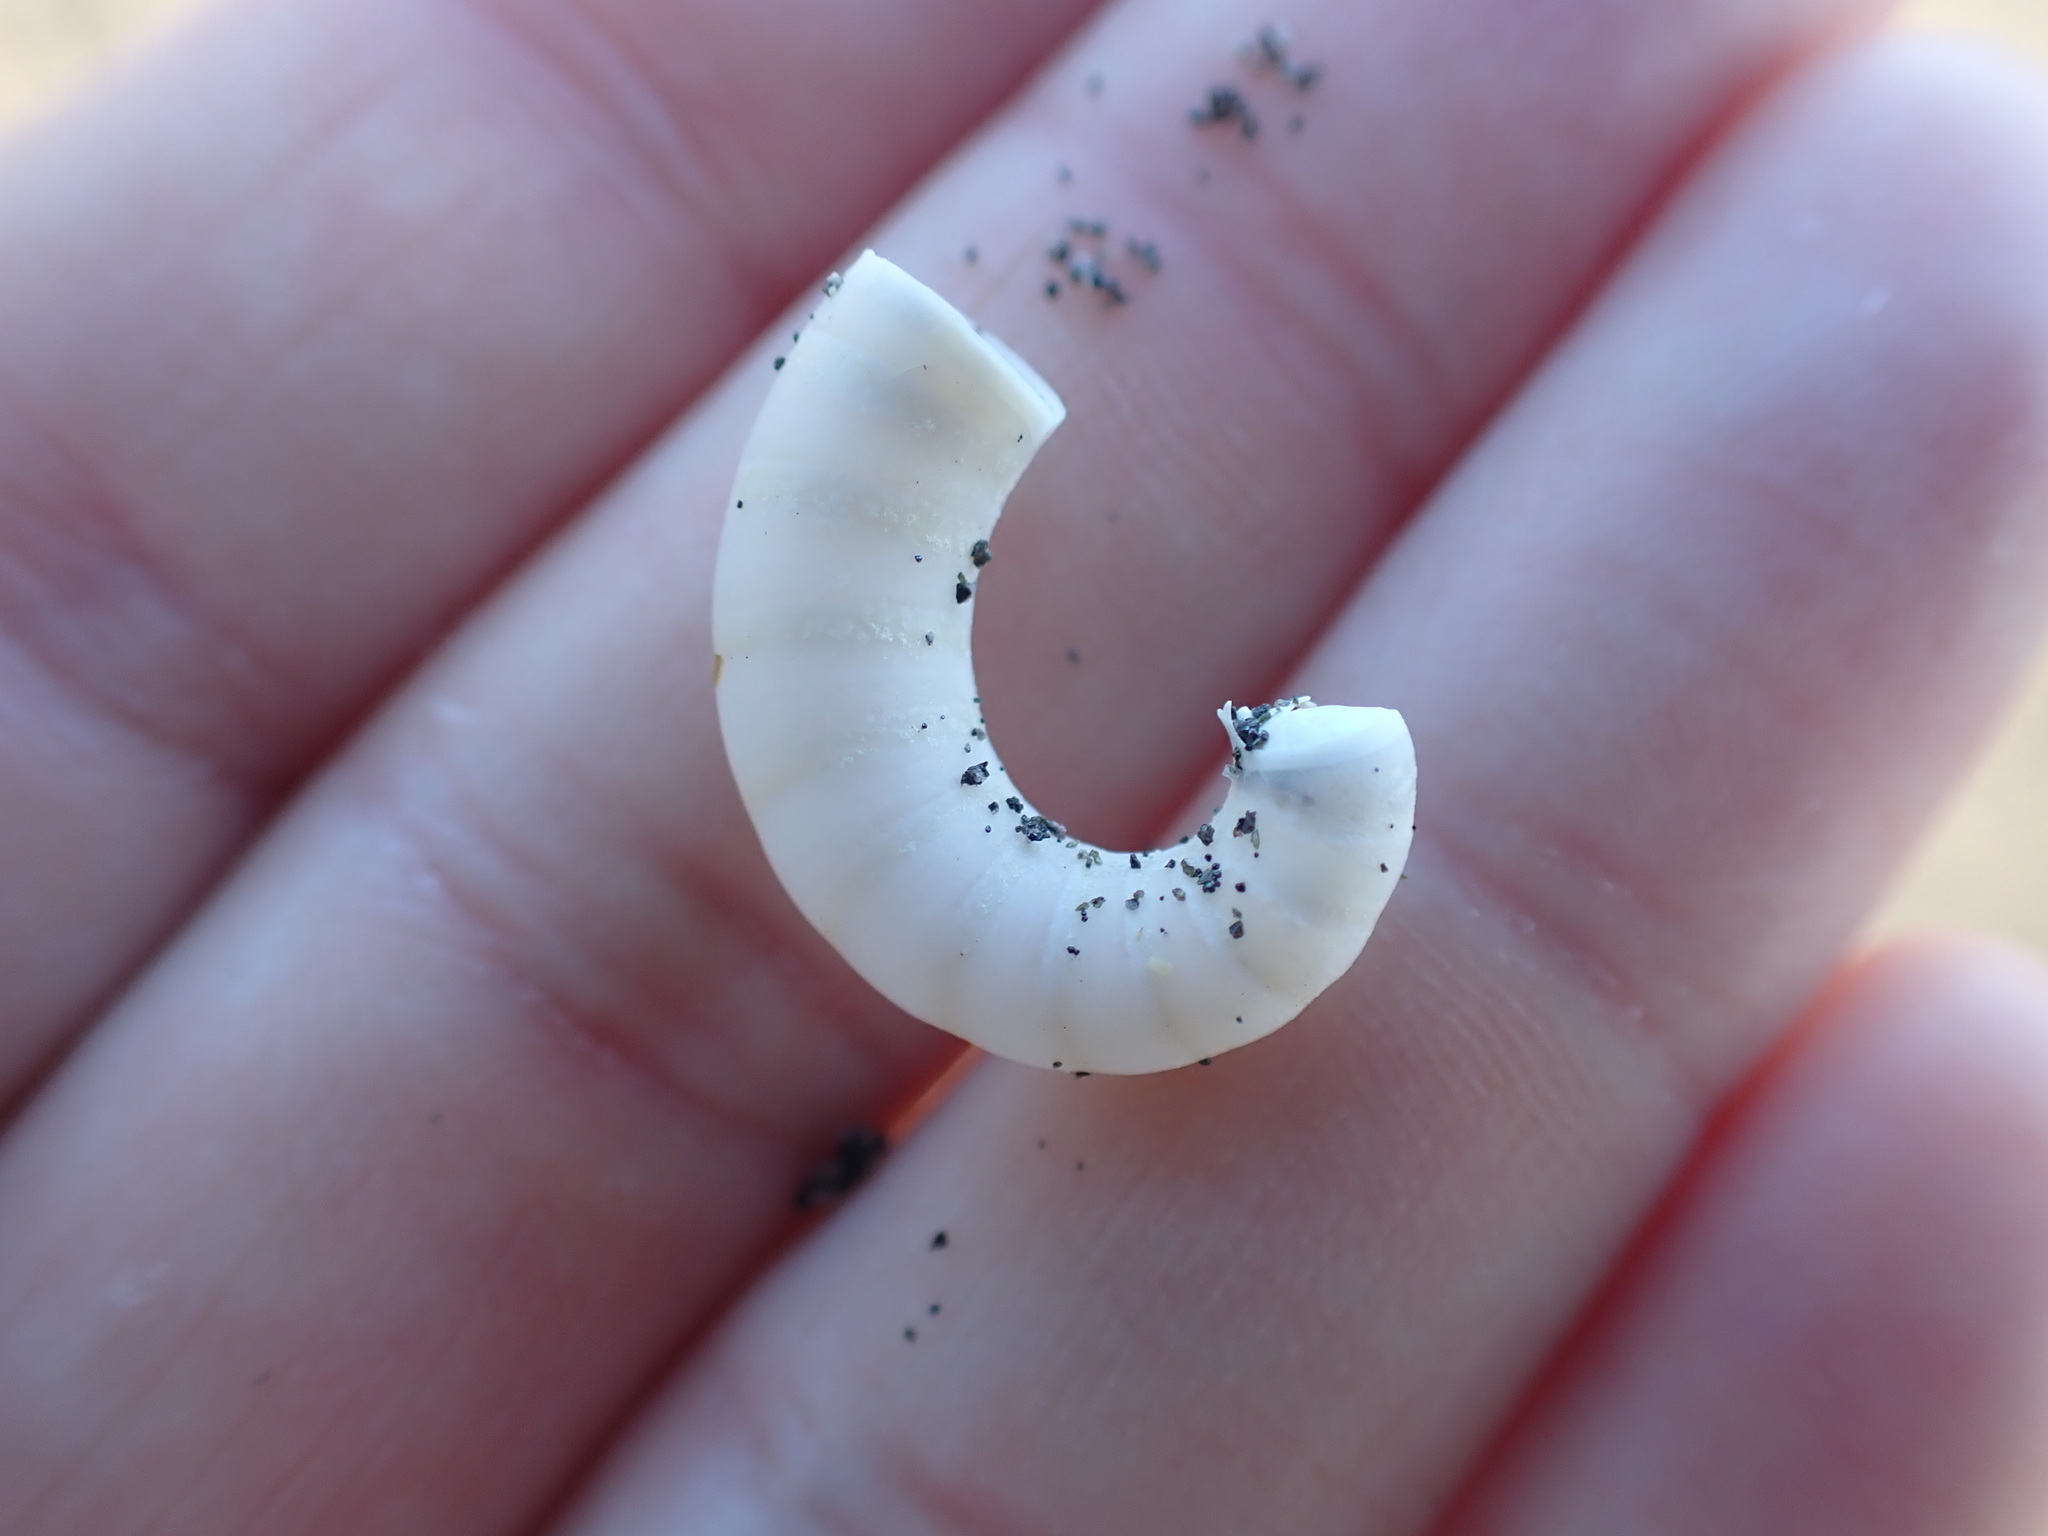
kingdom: Animalia
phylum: Mollusca
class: Cephalopoda
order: Spirulida
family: Spirulidae
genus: Spirula
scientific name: Spirula spirula
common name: Ram's horn squid
